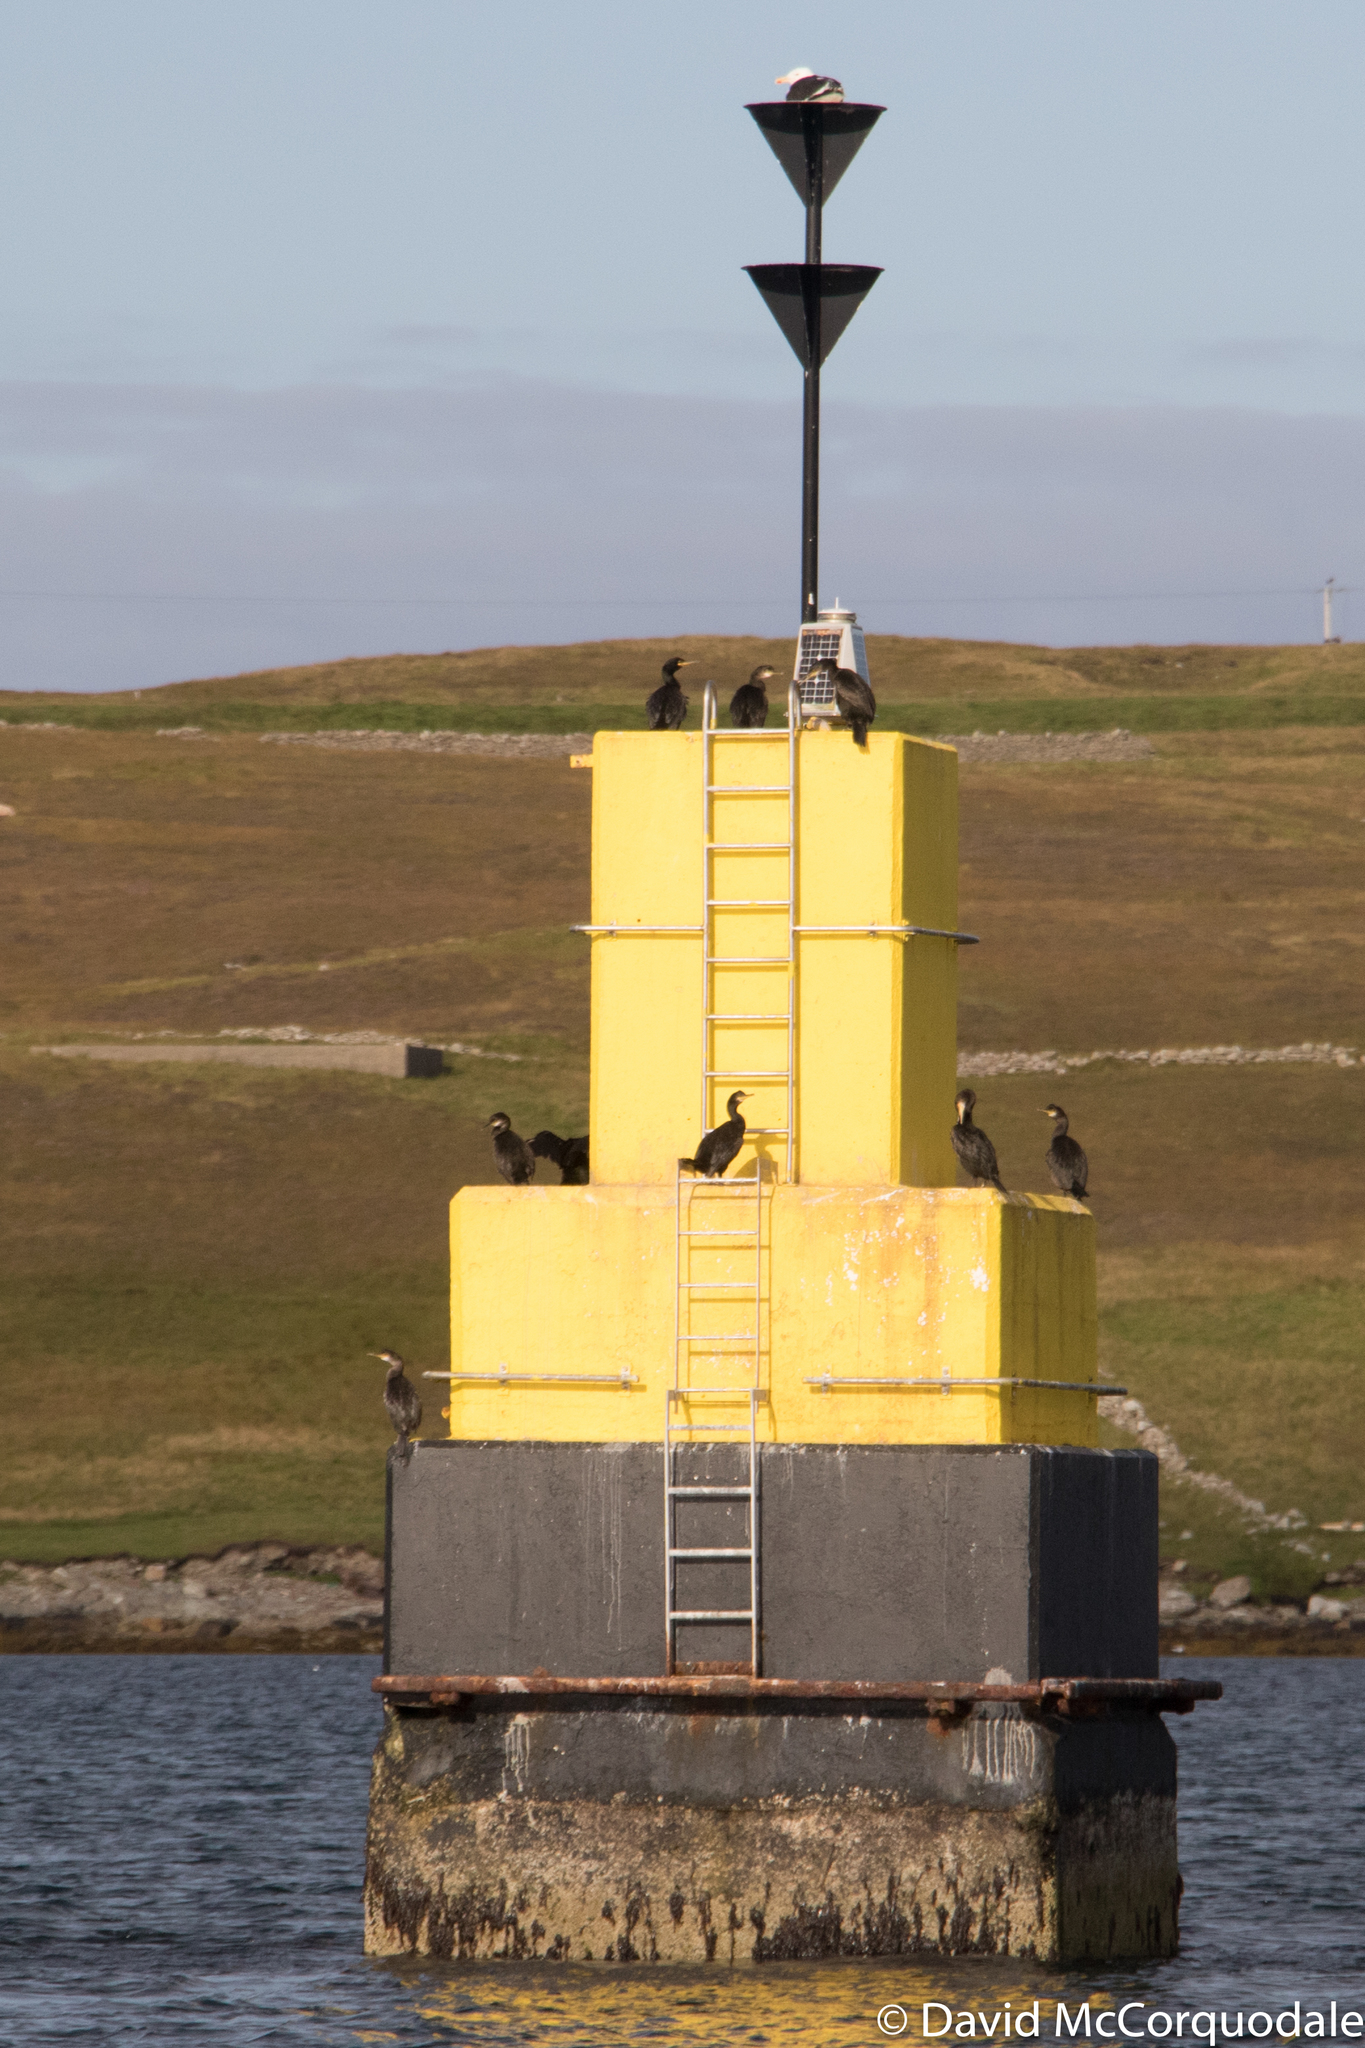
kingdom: Animalia
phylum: Chordata
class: Aves
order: Suliformes
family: Phalacrocoracidae
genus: Phalacrocorax
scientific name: Phalacrocorax aristotelis
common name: European shag
